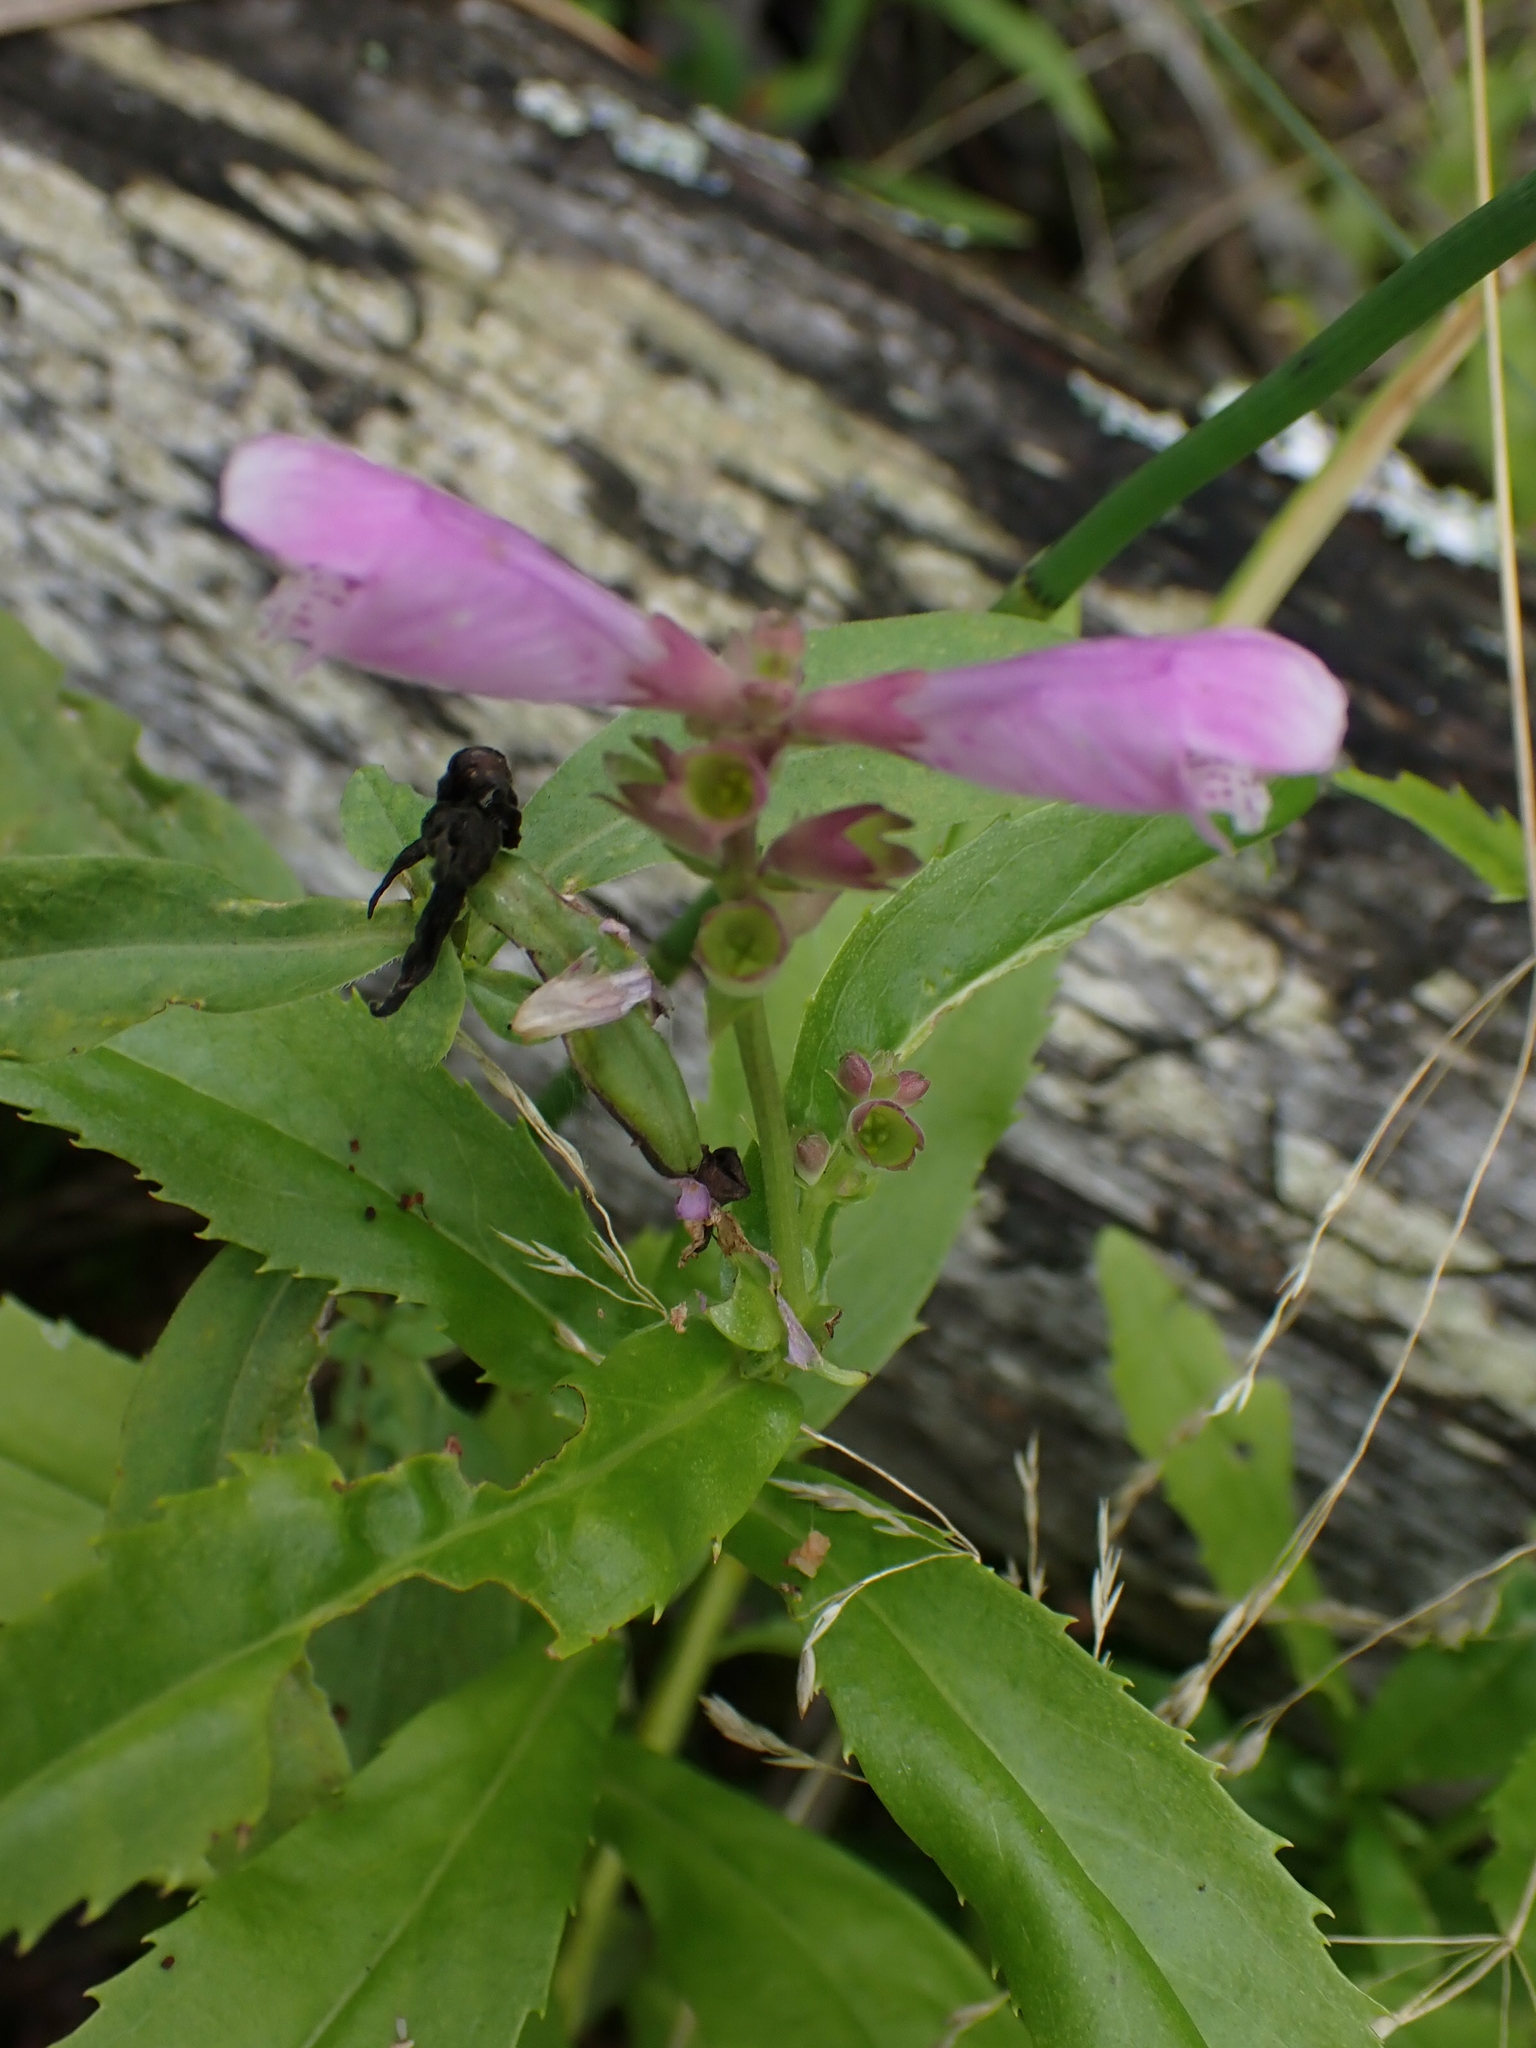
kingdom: Plantae
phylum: Tracheophyta
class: Magnoliopsida
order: Lamiales
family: Lamiaceae
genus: Physostegia
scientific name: Physostegia virginiana
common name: Obedient-plant
